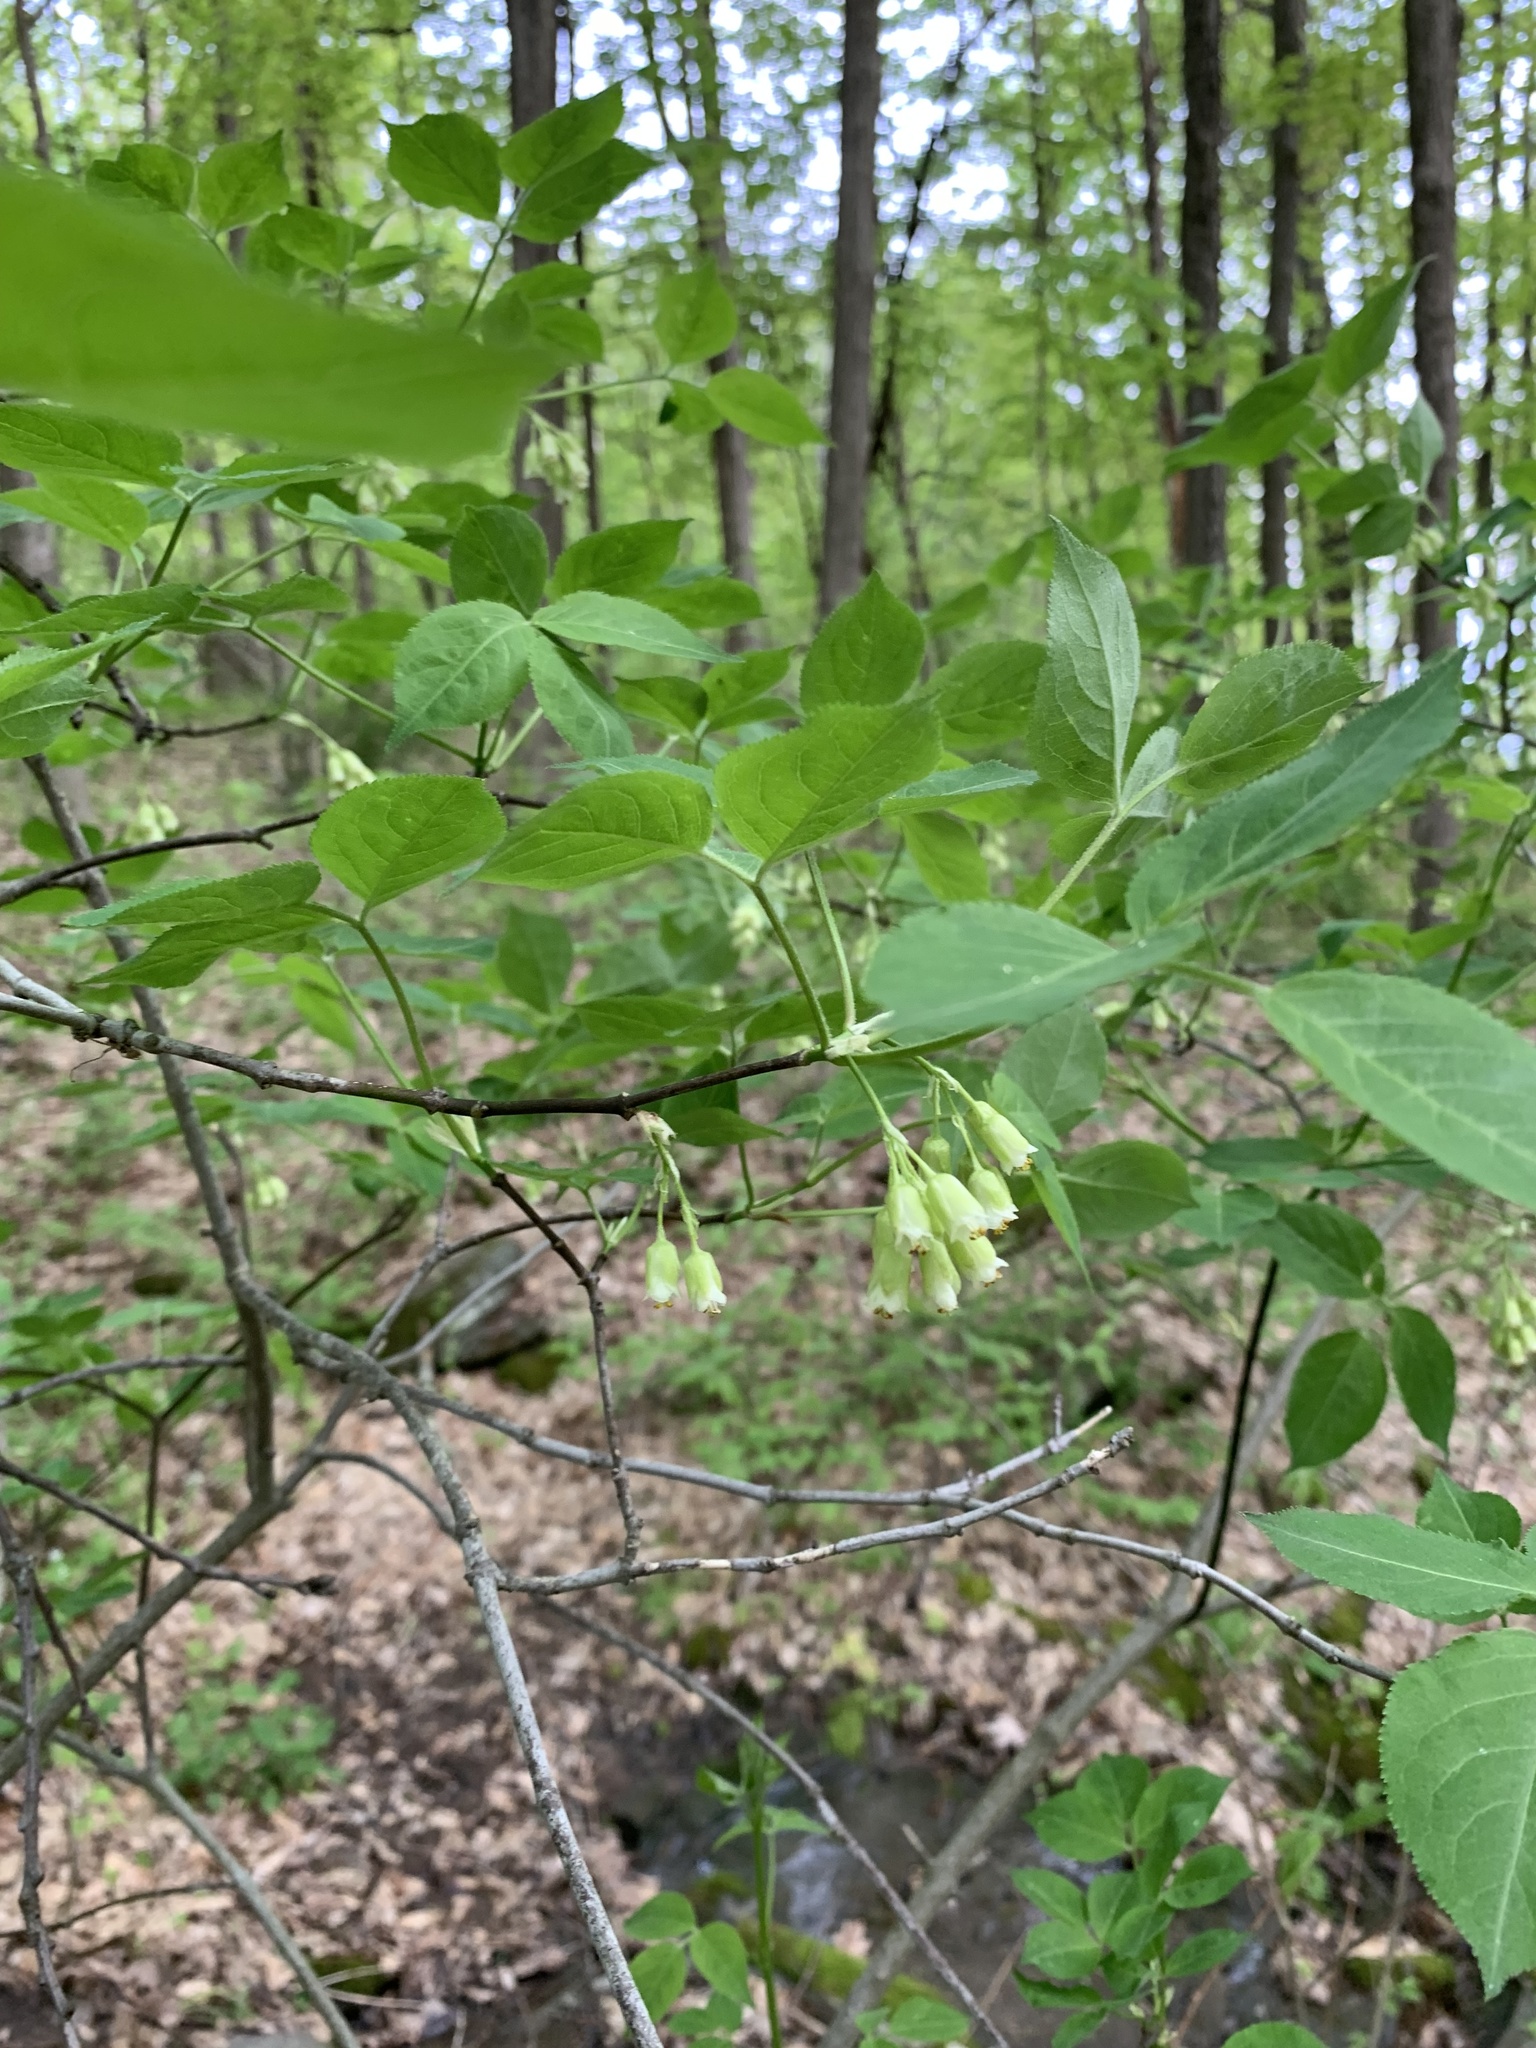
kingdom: Plantae
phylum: Tracheophyta
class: Magnoliopsida
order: Crossosomatales
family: Staphyleaceae
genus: Staphylea
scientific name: Staphylea trifolia
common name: American bladdernut
